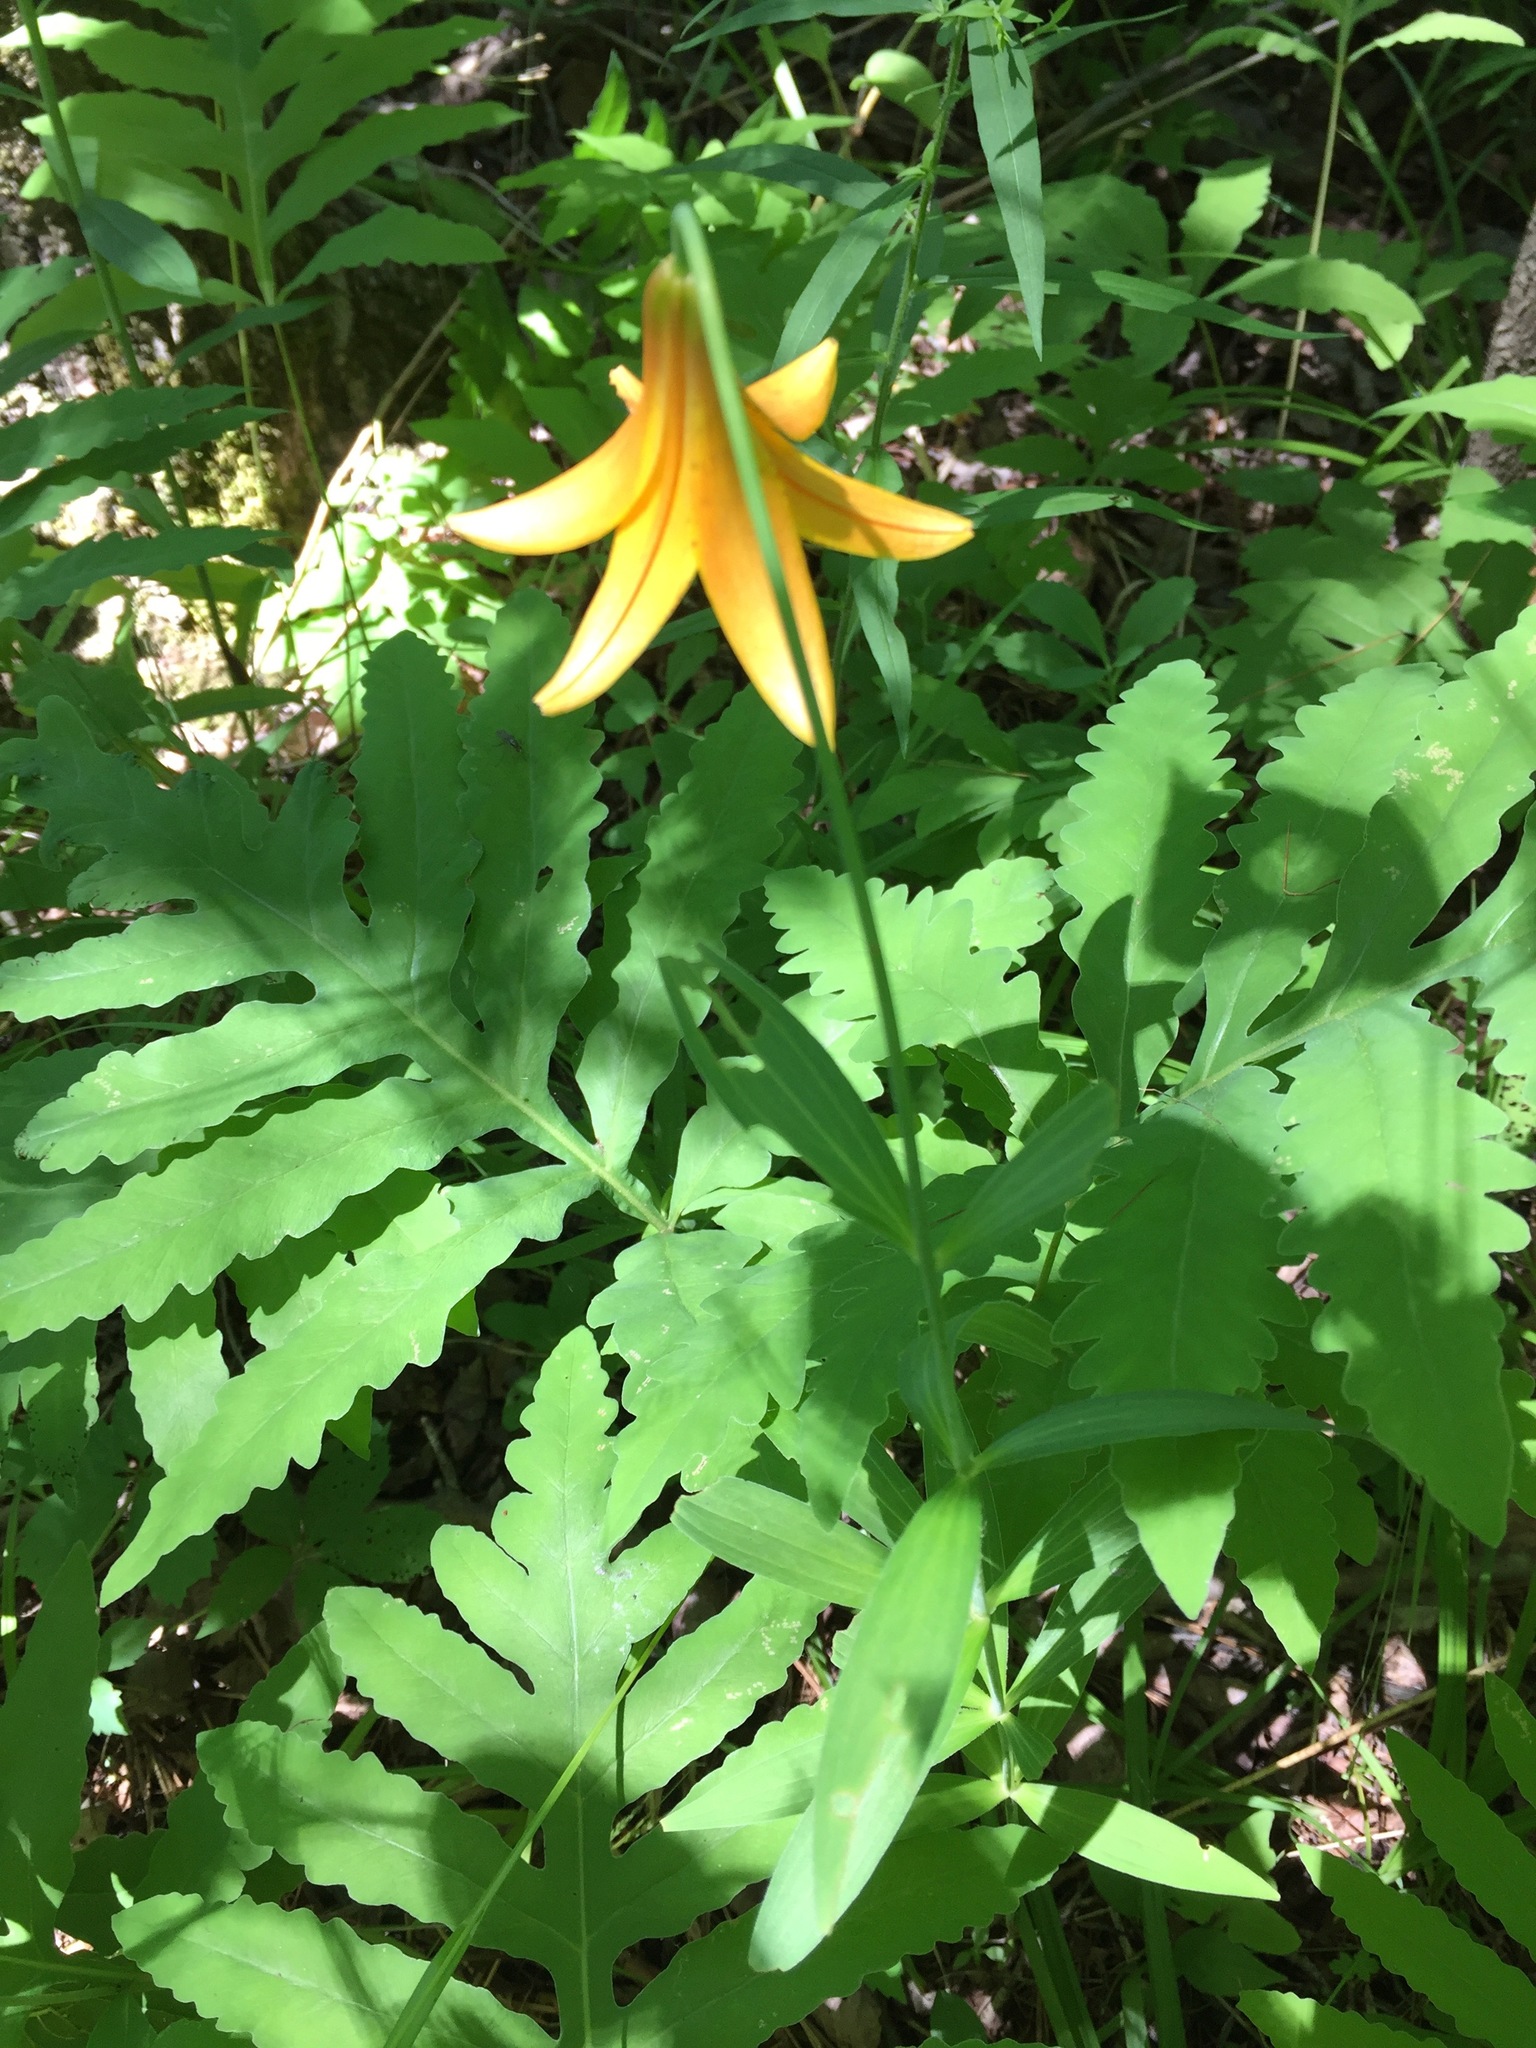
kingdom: Plantae
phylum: Tracheophyta
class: Liliopsida
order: Liliales
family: Liliaceae
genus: Lilium
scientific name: Lilium canadense
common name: Canada lily
